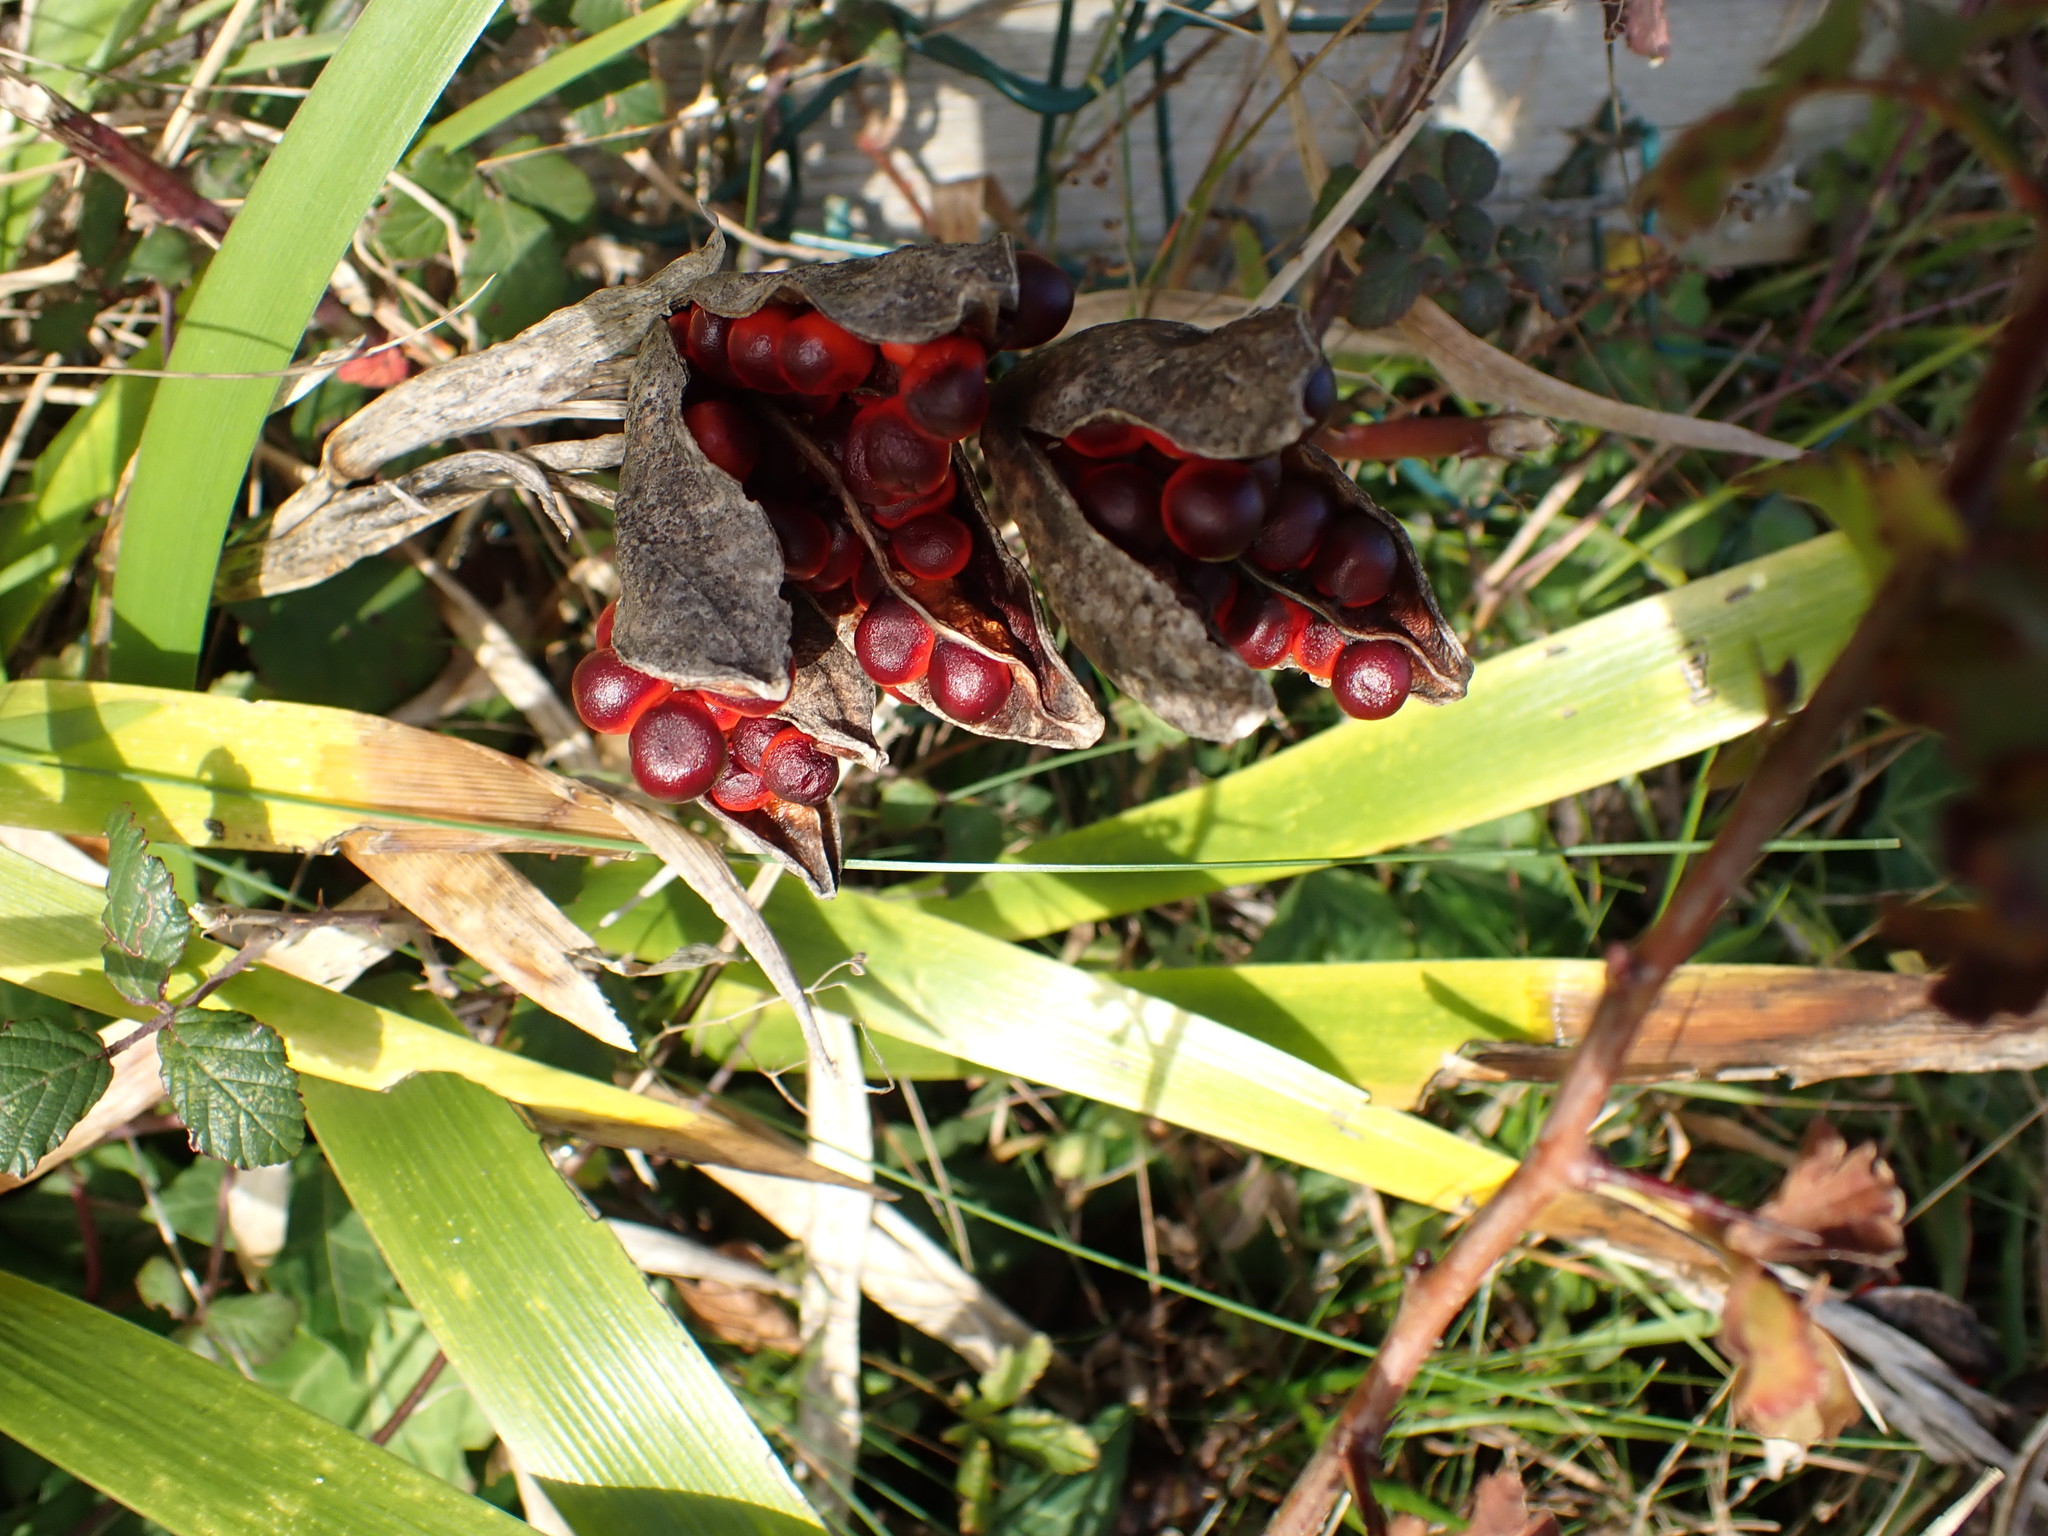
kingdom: Plantae
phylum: Tracheophyta
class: Liliopsida
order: Asparagales
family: Iridaceae
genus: Iris
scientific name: Iris foetidissima
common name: Stinking iris
